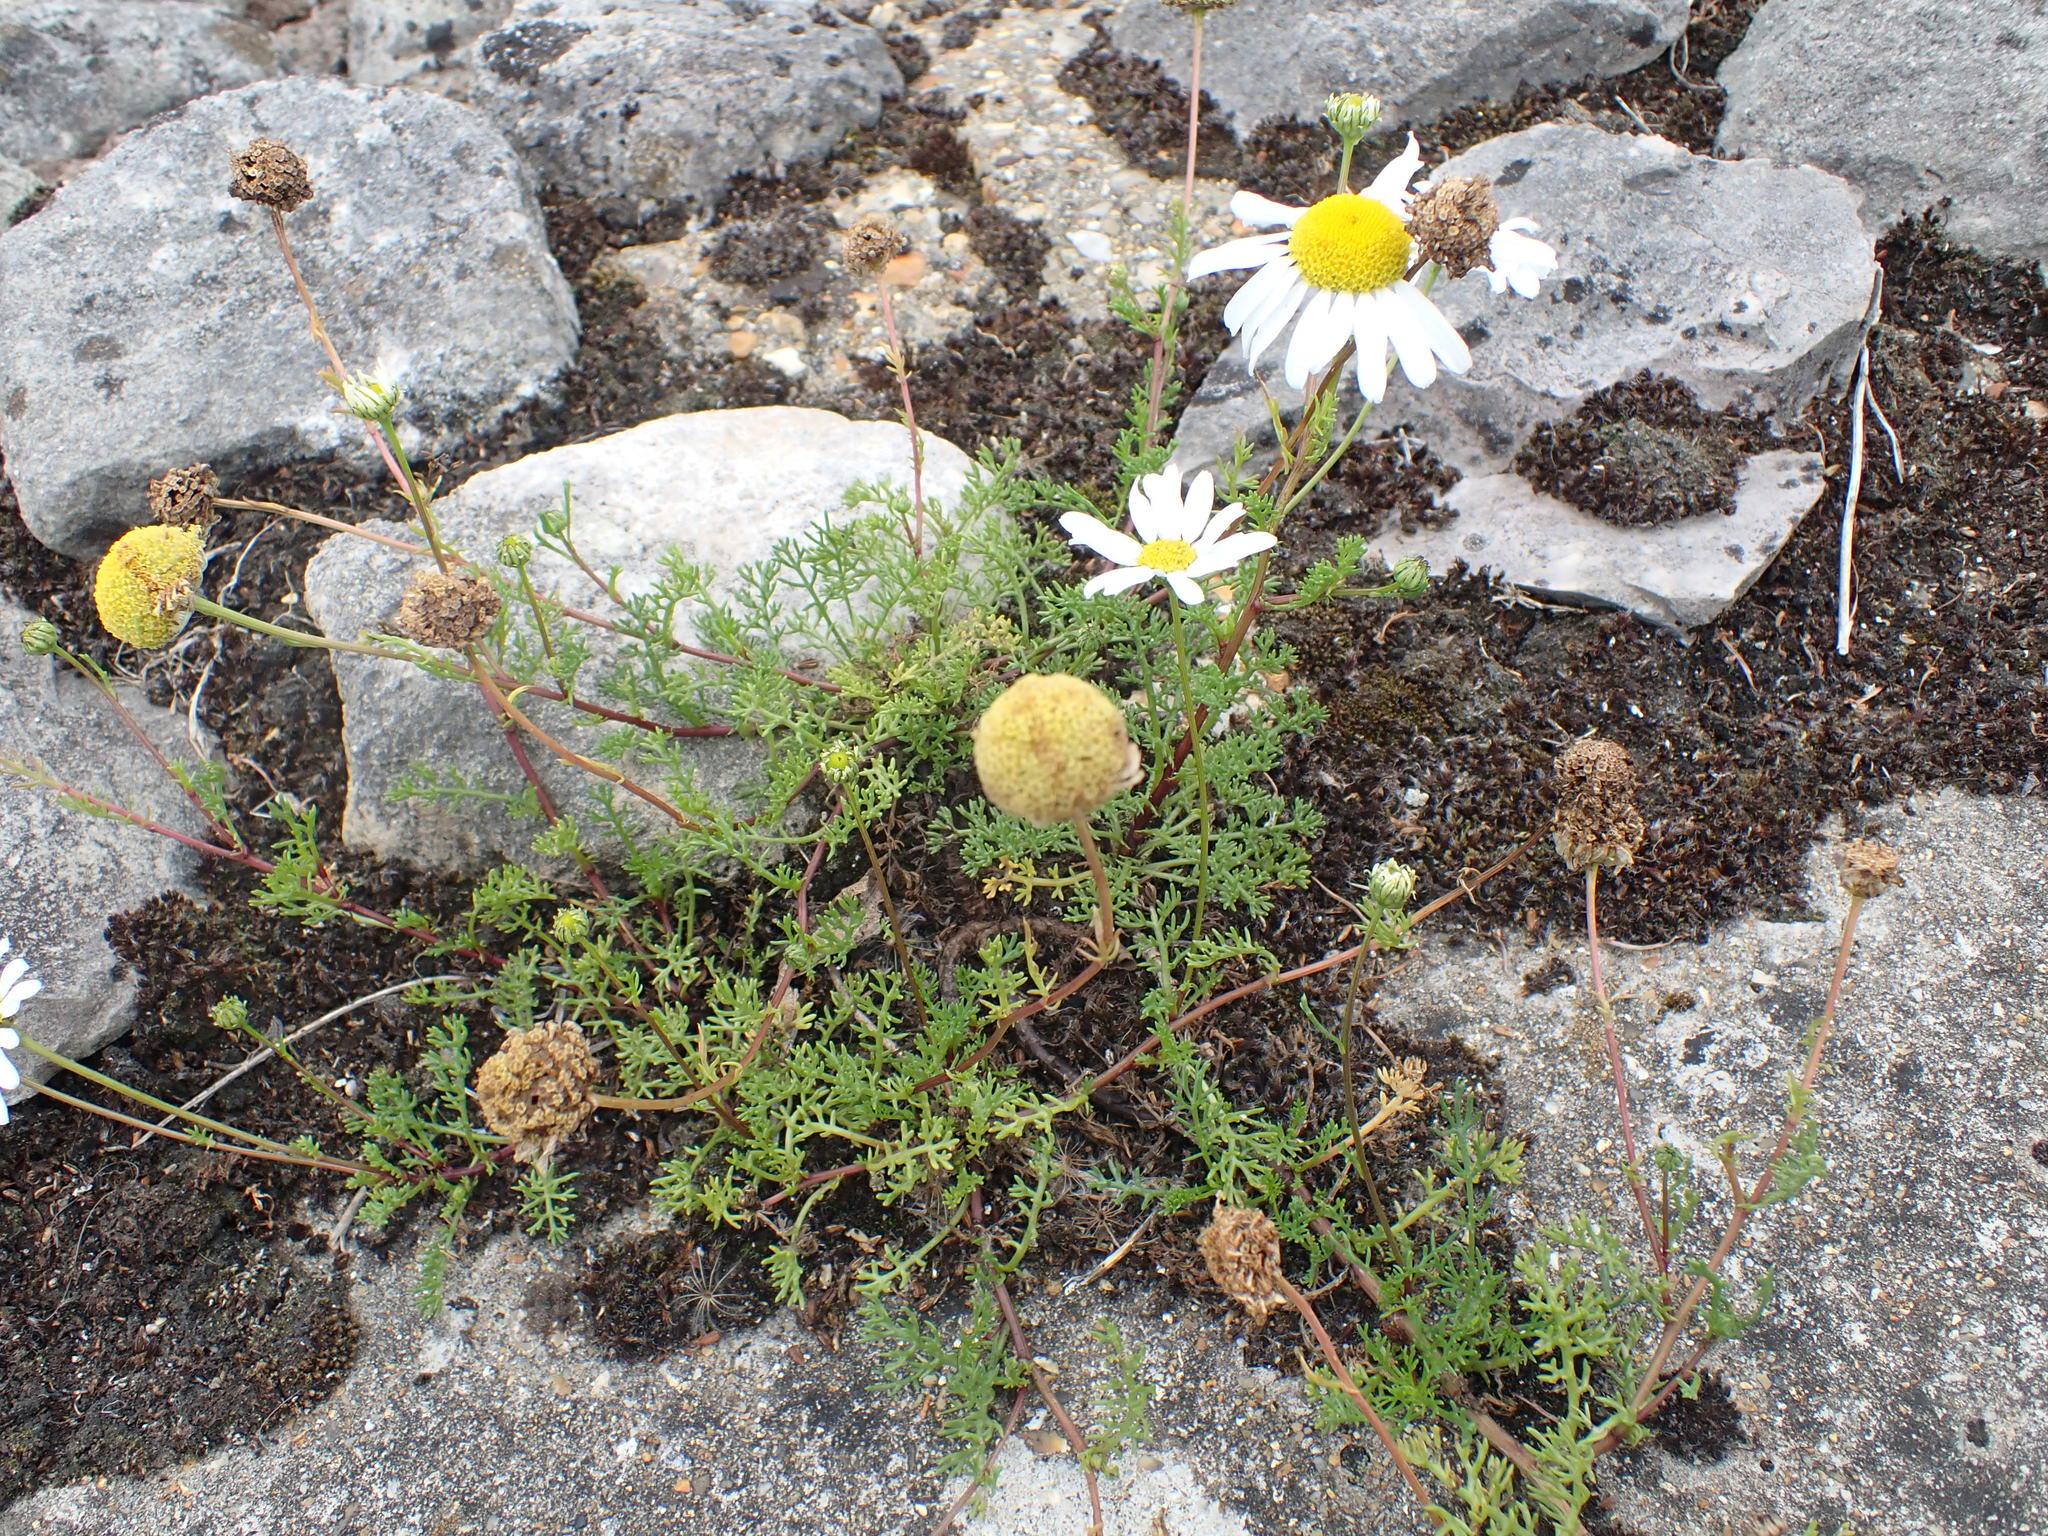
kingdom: Plantae
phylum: Tracheophyta
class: Magnoliopsida
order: Asterales
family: Asteraceae
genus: Tripleurospermum
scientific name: Tripleurospermum maritimum
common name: Sea mayweed
